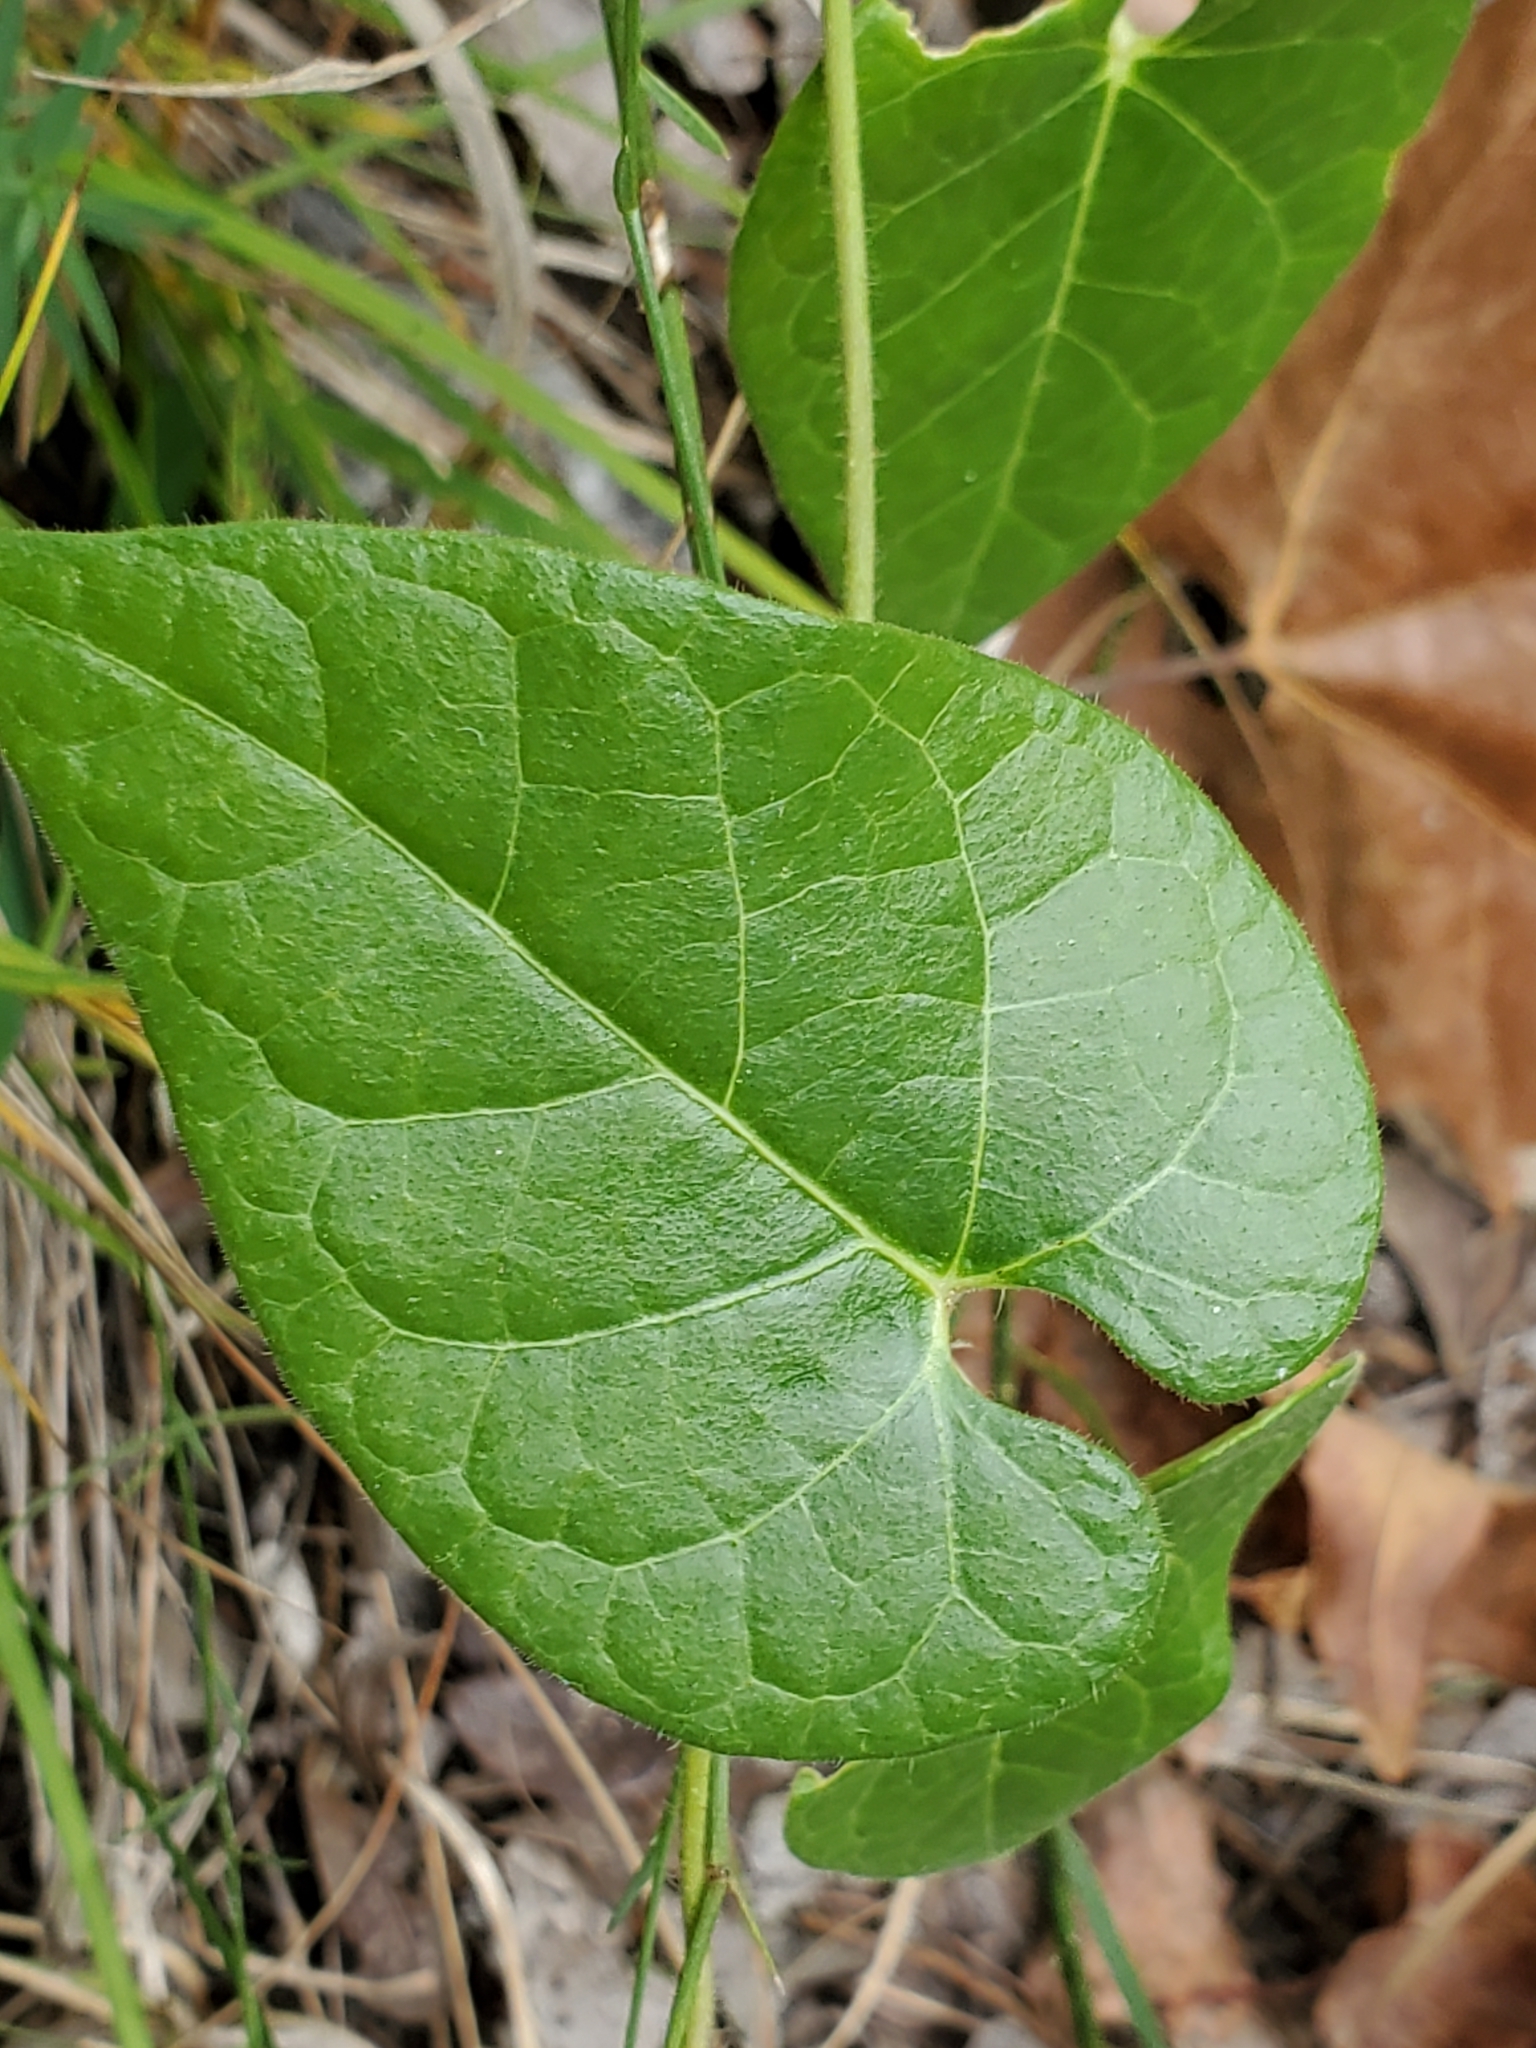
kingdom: Plantae
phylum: Tracheophyta
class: Magnoliopsida
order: Gentianales
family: Apocynaceae
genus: Dictyanthus
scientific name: Dictyanthus reticulatus
